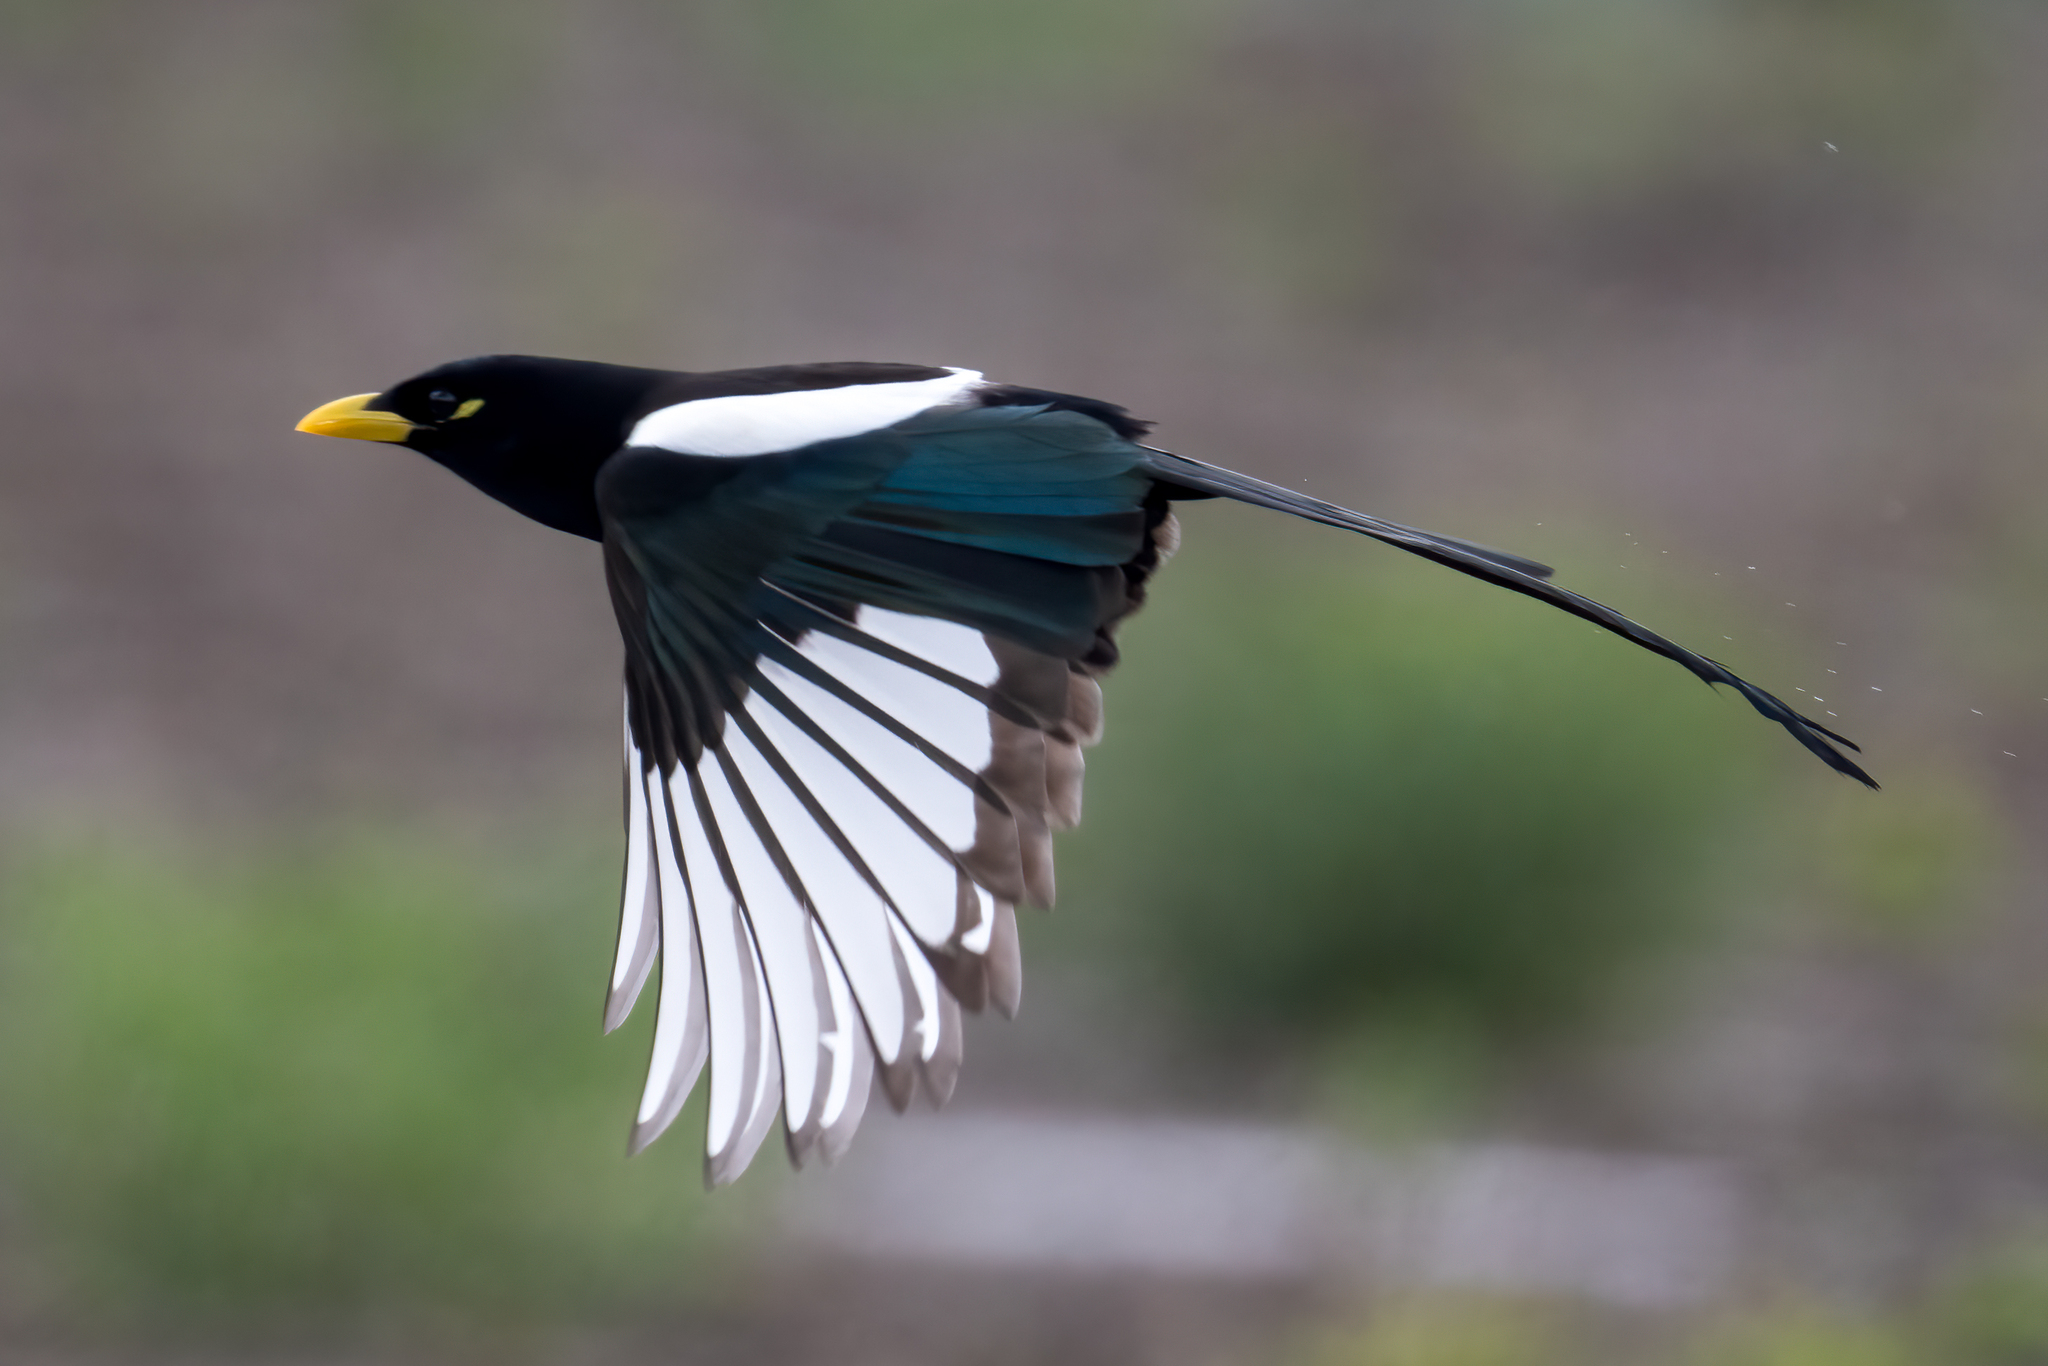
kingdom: Animalia
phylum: Chordata
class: Aves
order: Passeriformes
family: Corvidae
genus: Pica
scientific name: Pica nuttalli
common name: Yellow-billed magpie
